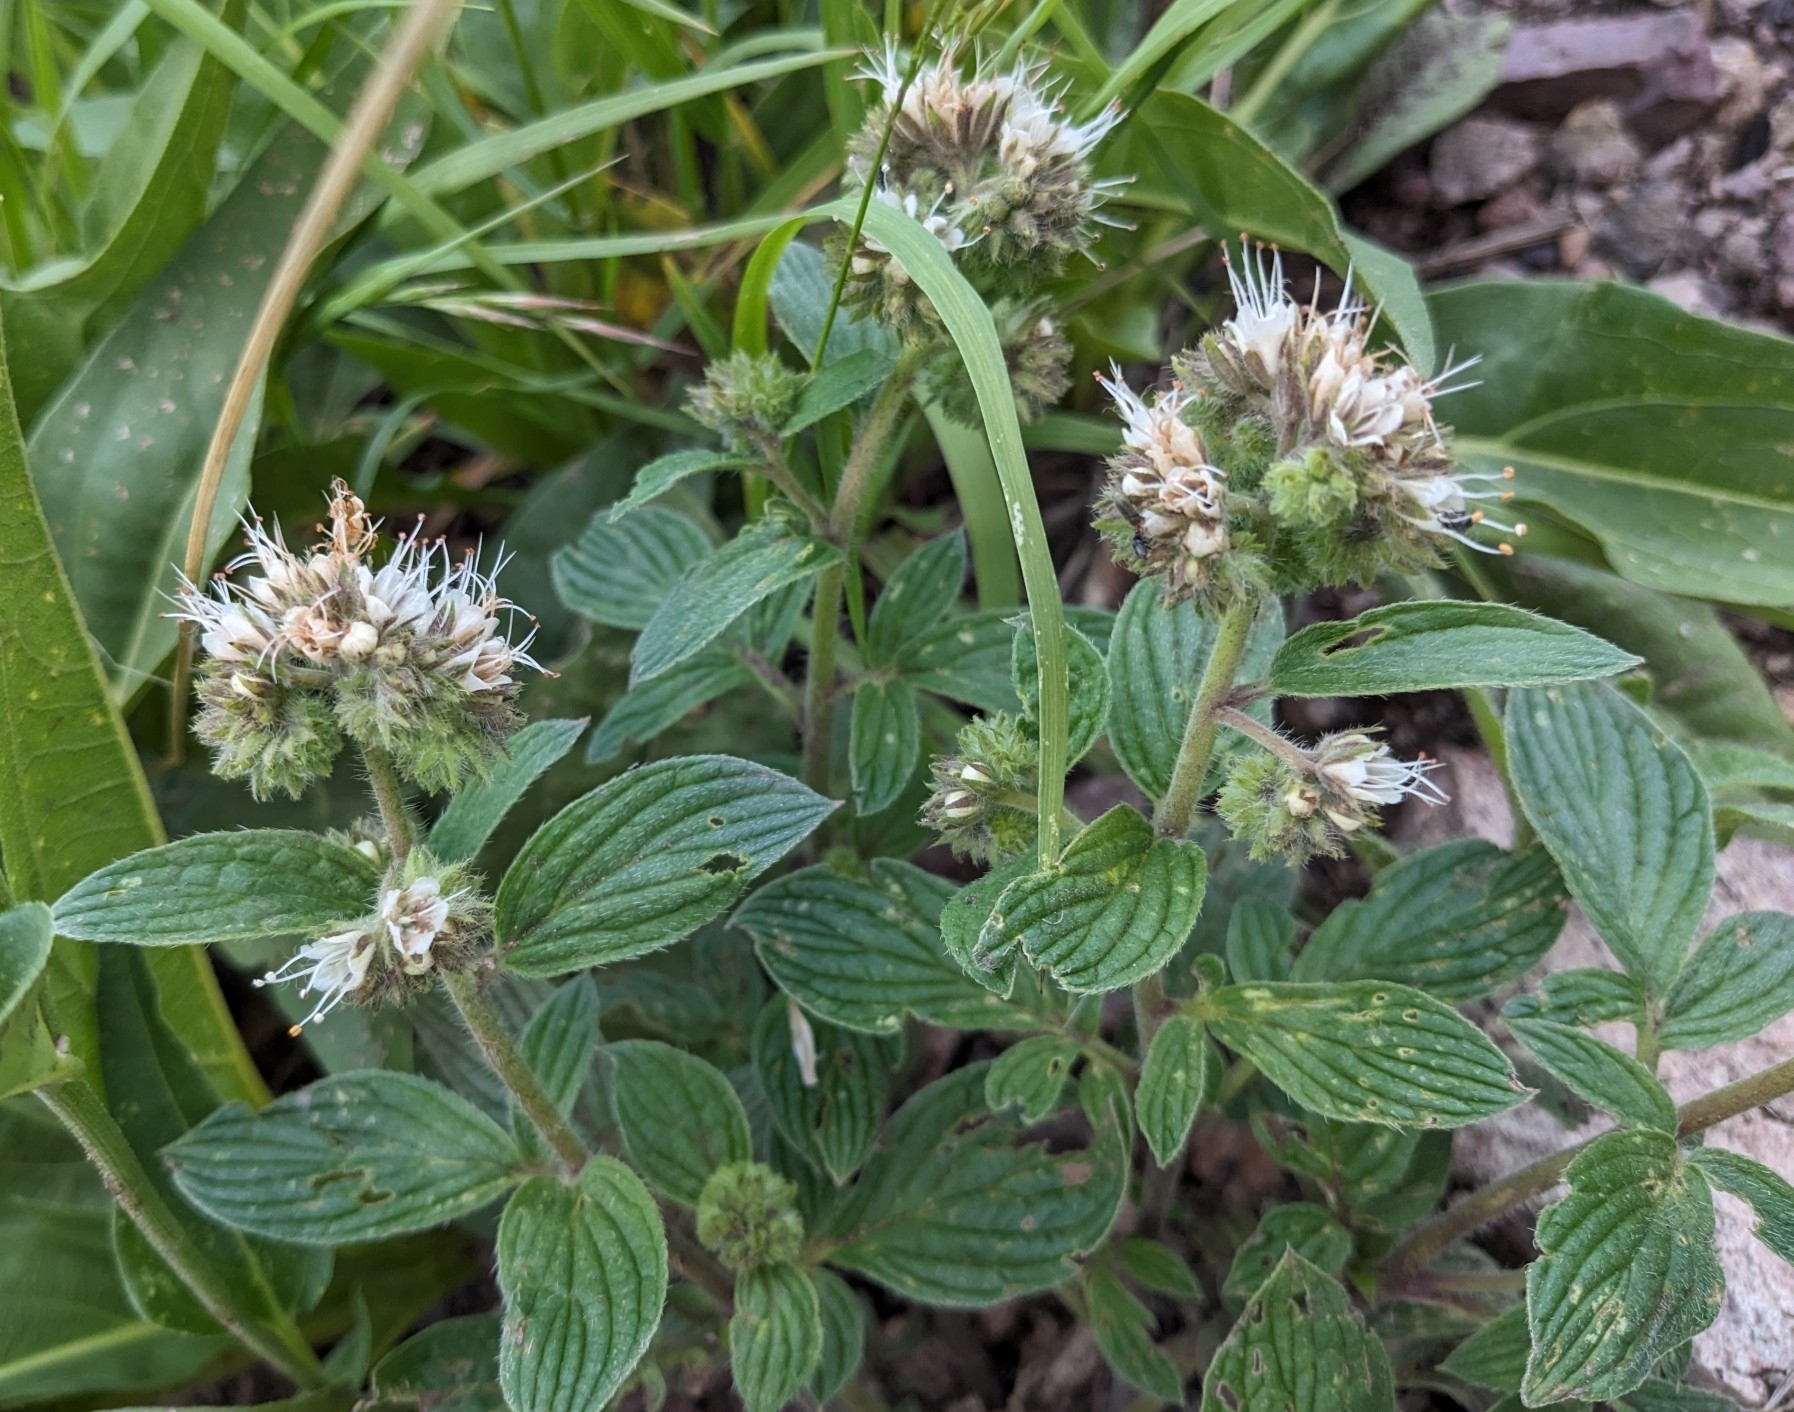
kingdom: Plantae
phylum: Tracheophyta
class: Magnoliopsida
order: Boraginales
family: Hydrophyllaceae
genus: Phacelia
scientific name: Phacelia heterophylla
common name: Variable-leaved phacelia
